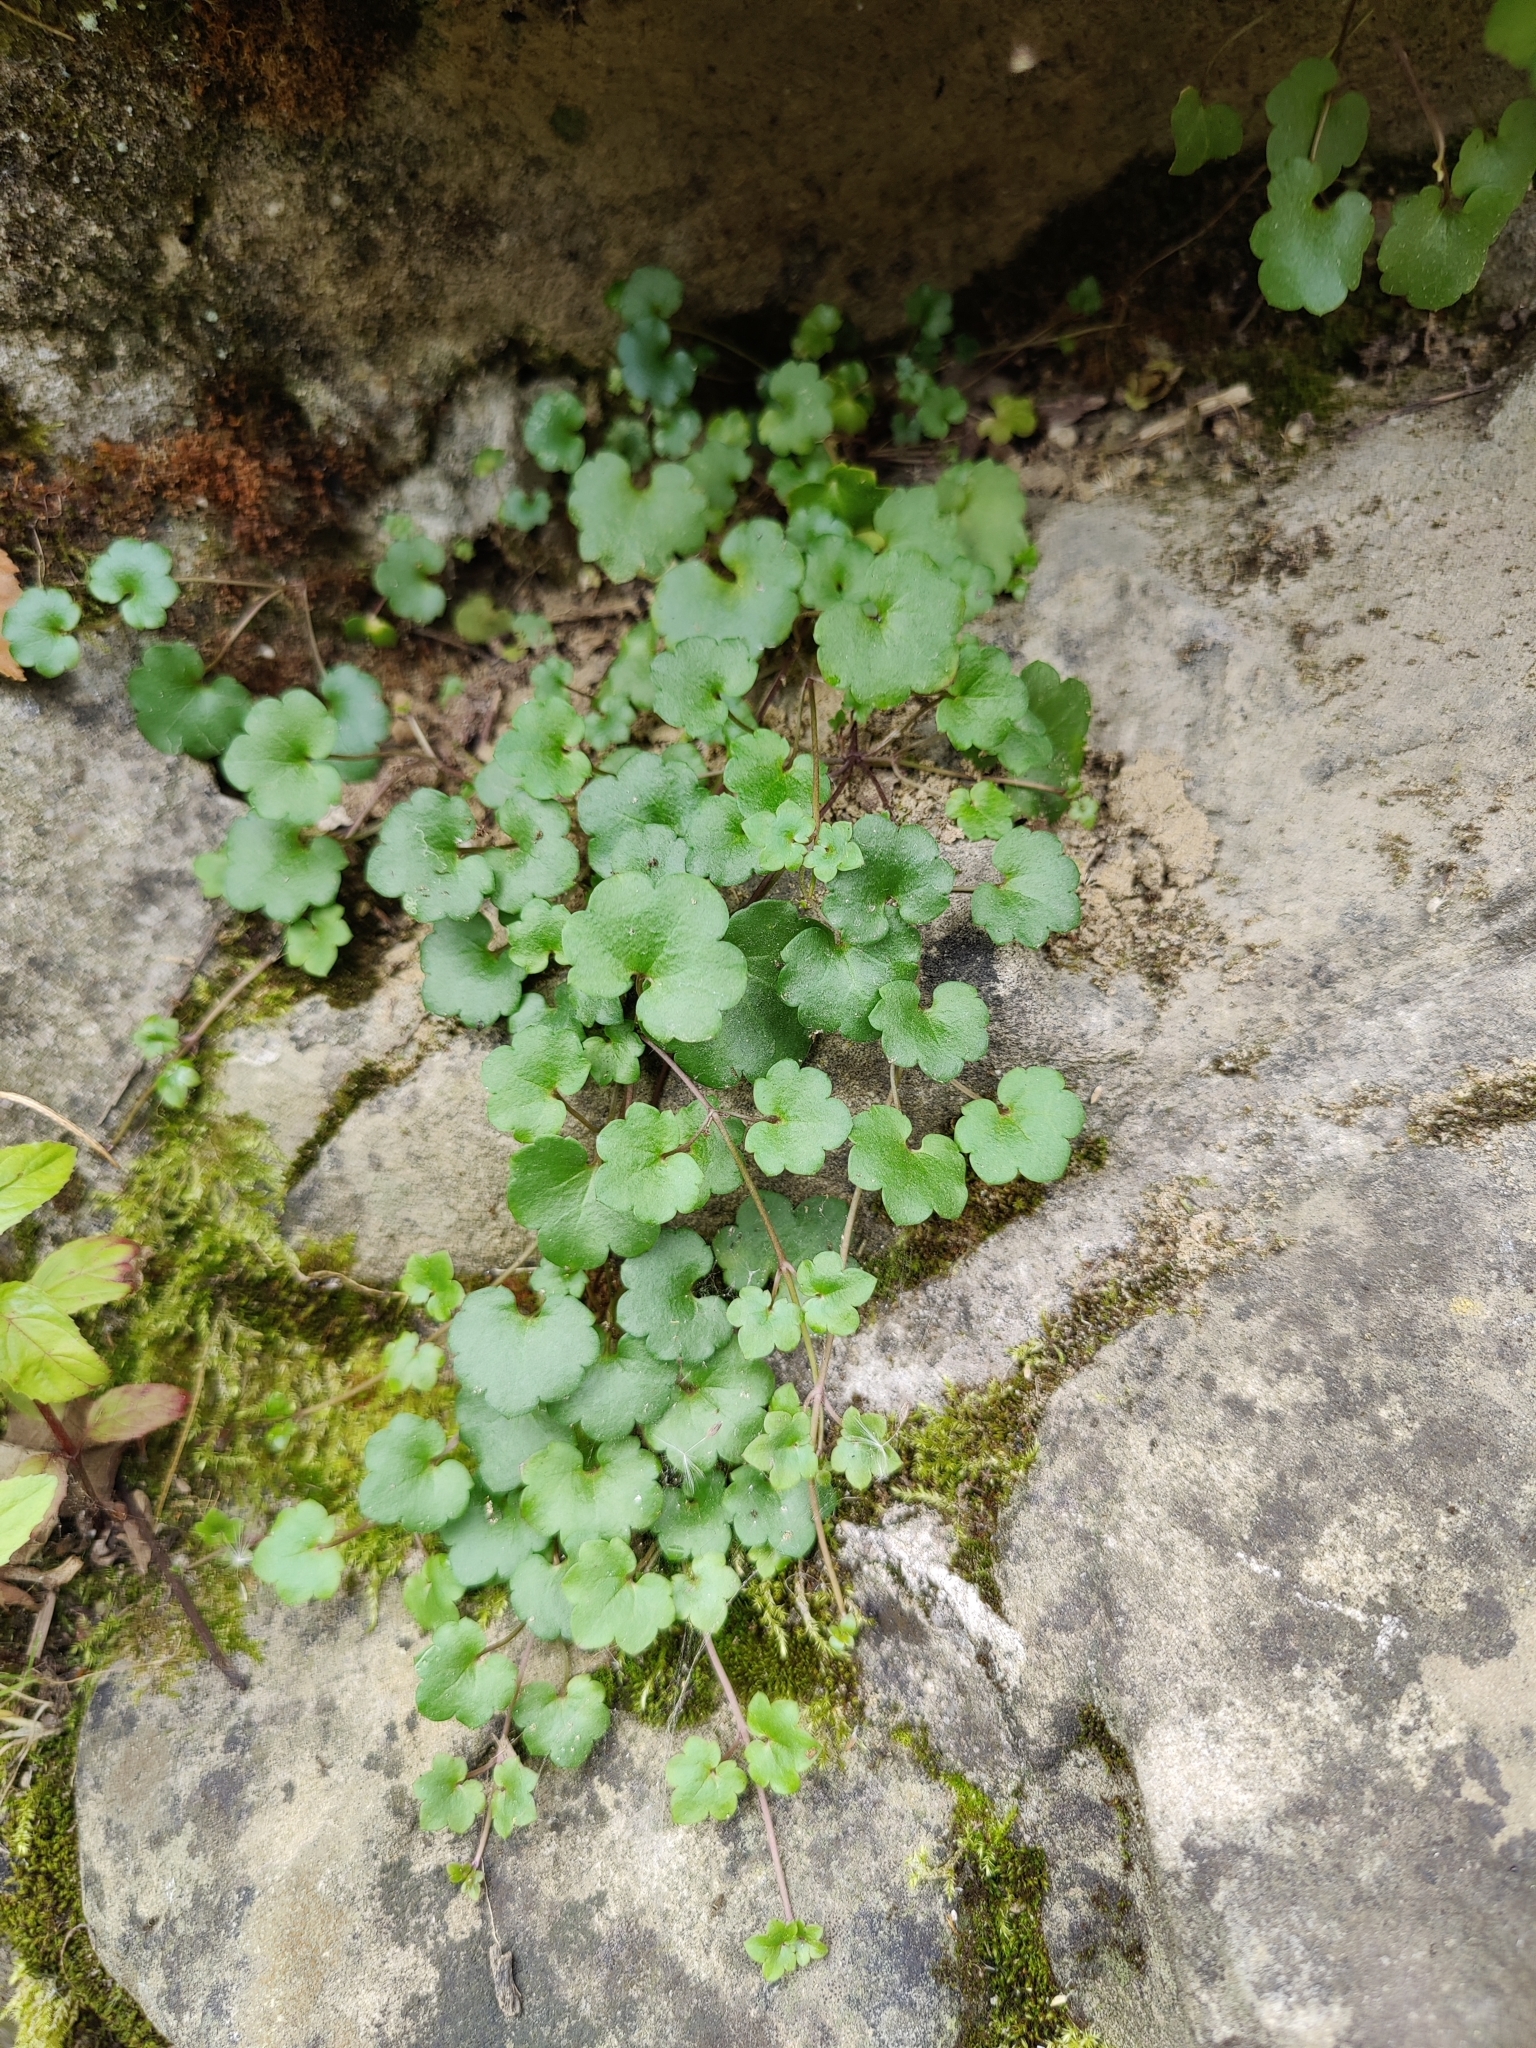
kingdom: Plantae
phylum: Tracheophyta
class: Magnoliopsida
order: Lamiales
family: Plantaginaceae
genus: Cymbalaria
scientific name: Cymbalaria muralis
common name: Ivy-leaved toadflax
